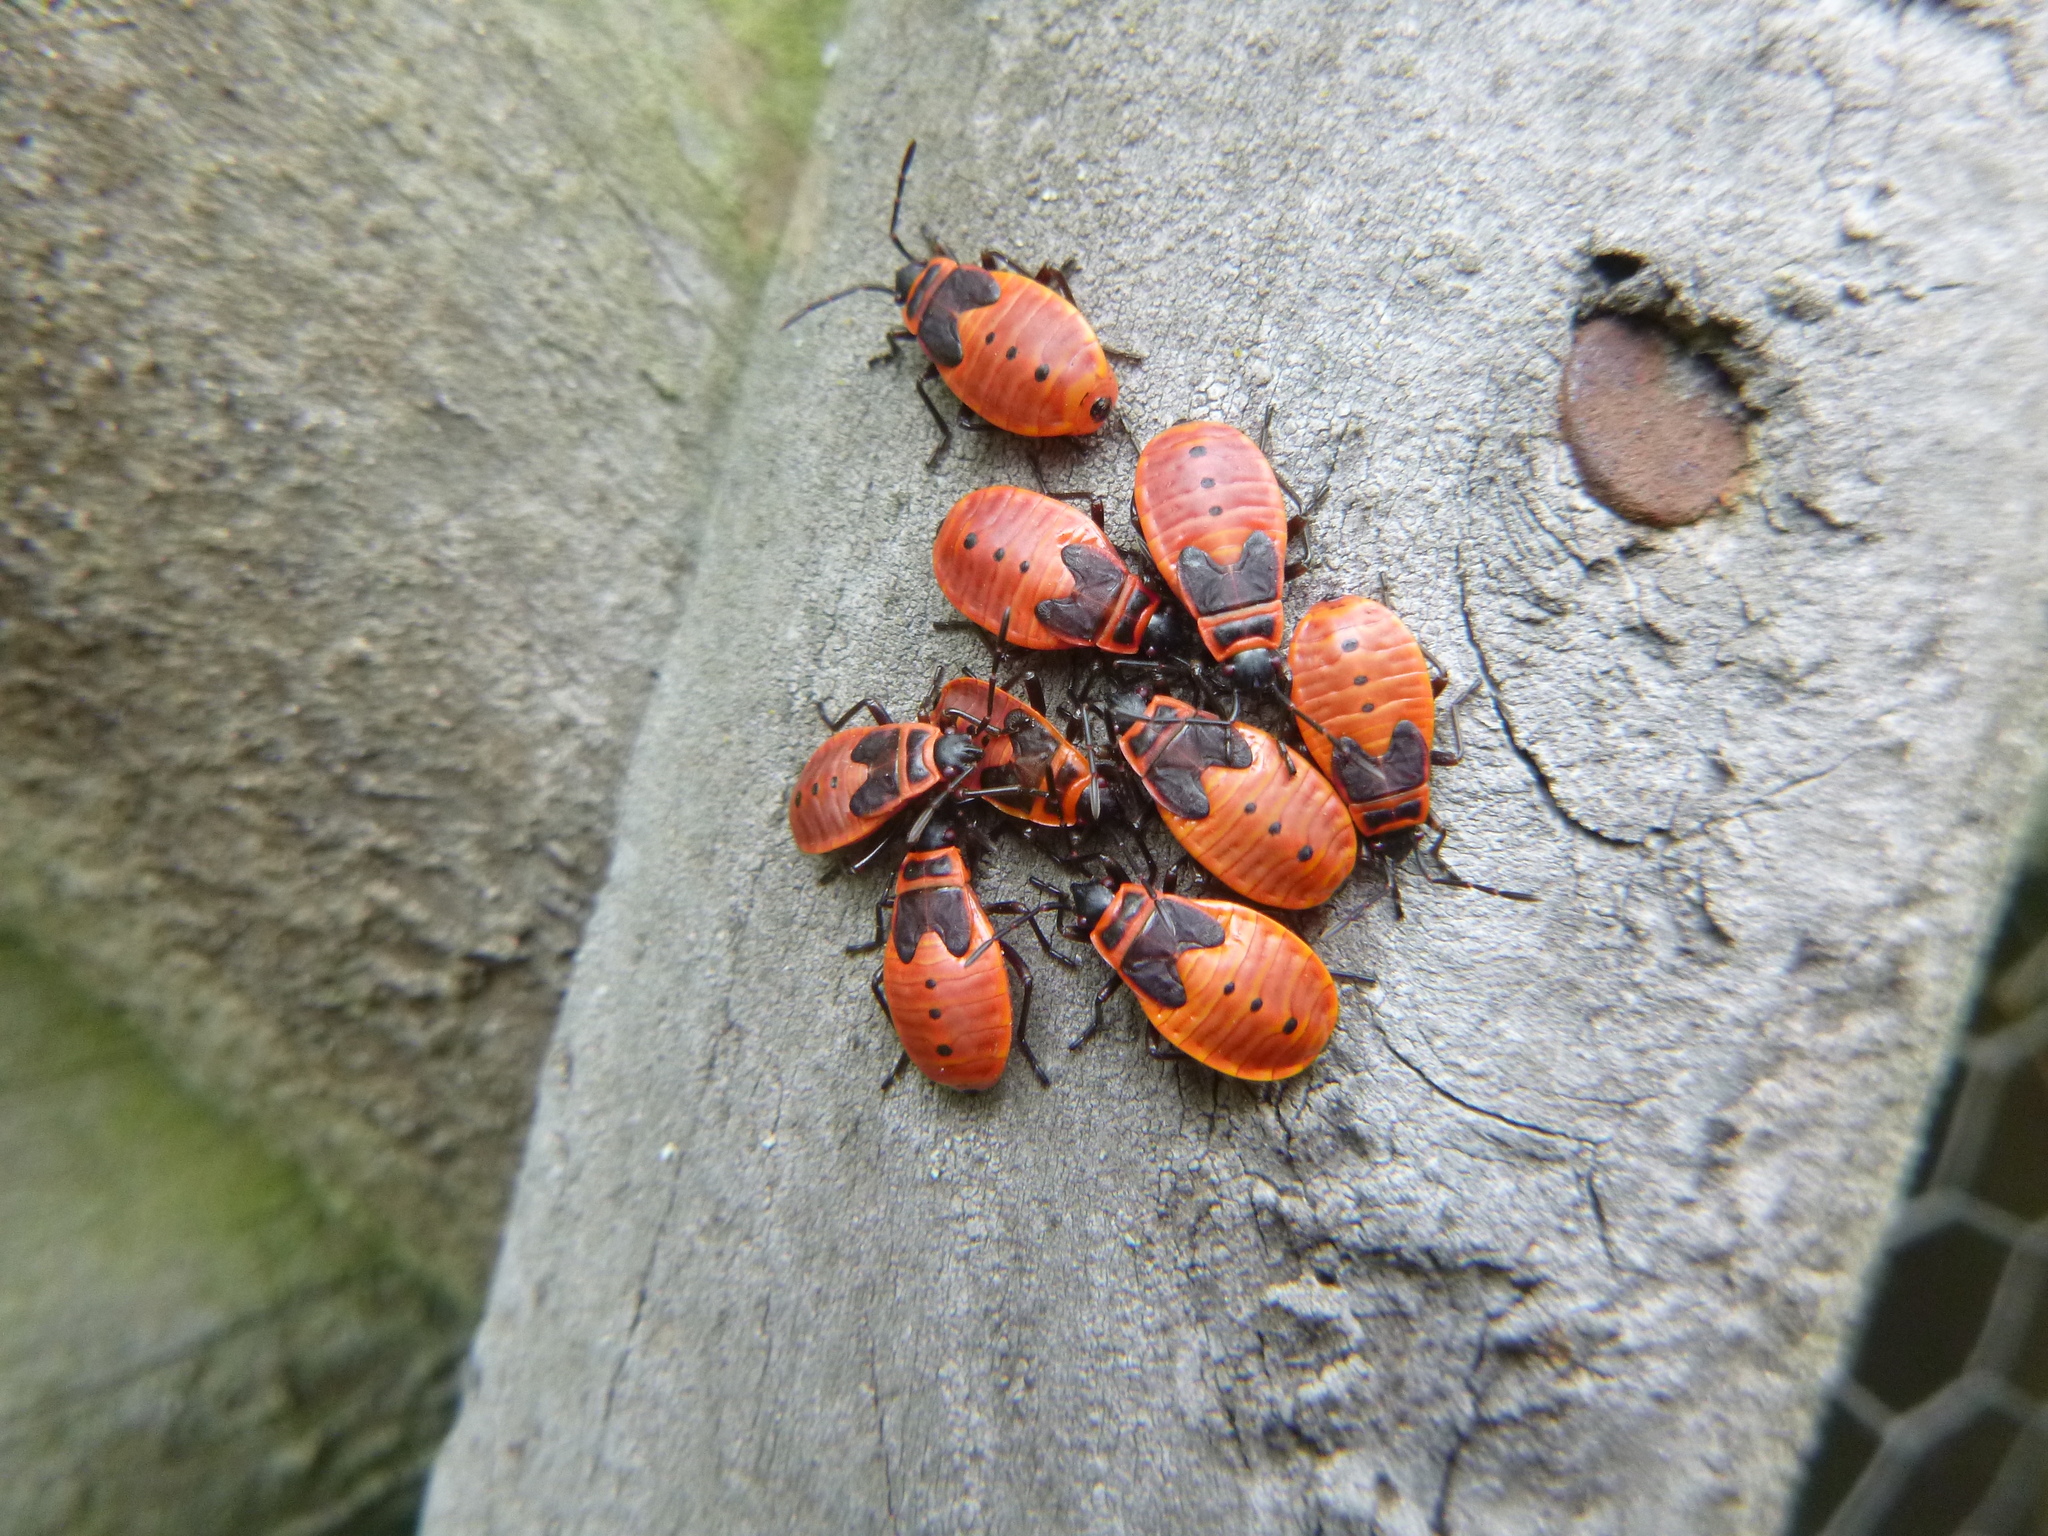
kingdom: Animalia
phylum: Arthropoda
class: Insecta
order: Hemiptera
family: Pyrrhocoridae
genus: Pyrrhocoris
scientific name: Pyrrhocoris apterus
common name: Firebug
